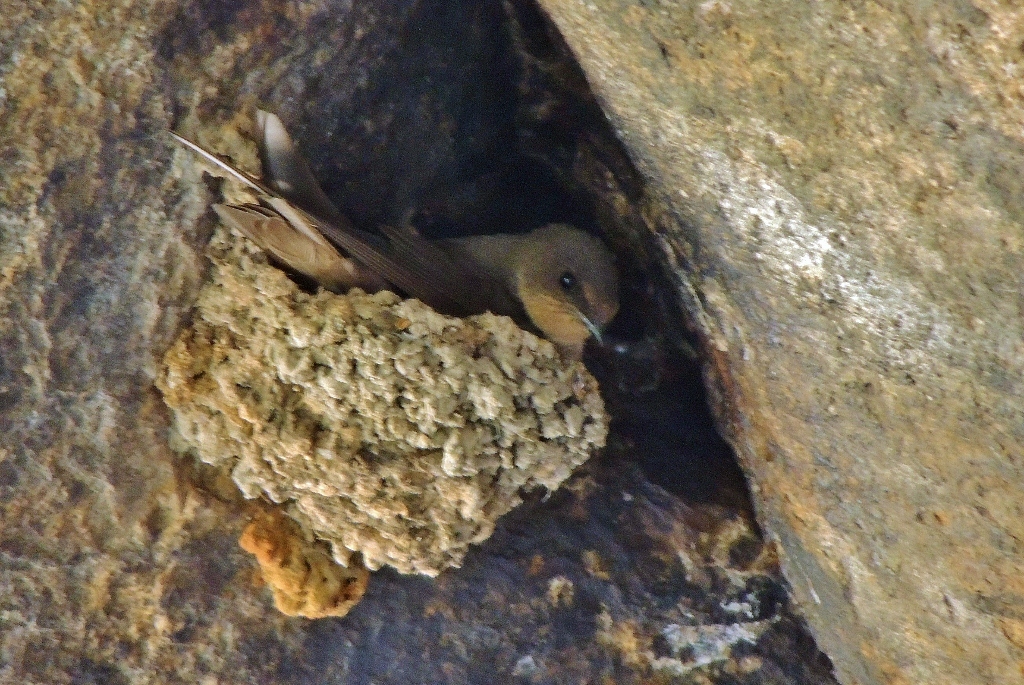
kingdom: Animalia
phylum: Chordata
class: Aves
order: Passeriformes
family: Hirundinidae
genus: Ptyonoprogne
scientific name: Ptyonoprogne fuligula
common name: Rock martin
